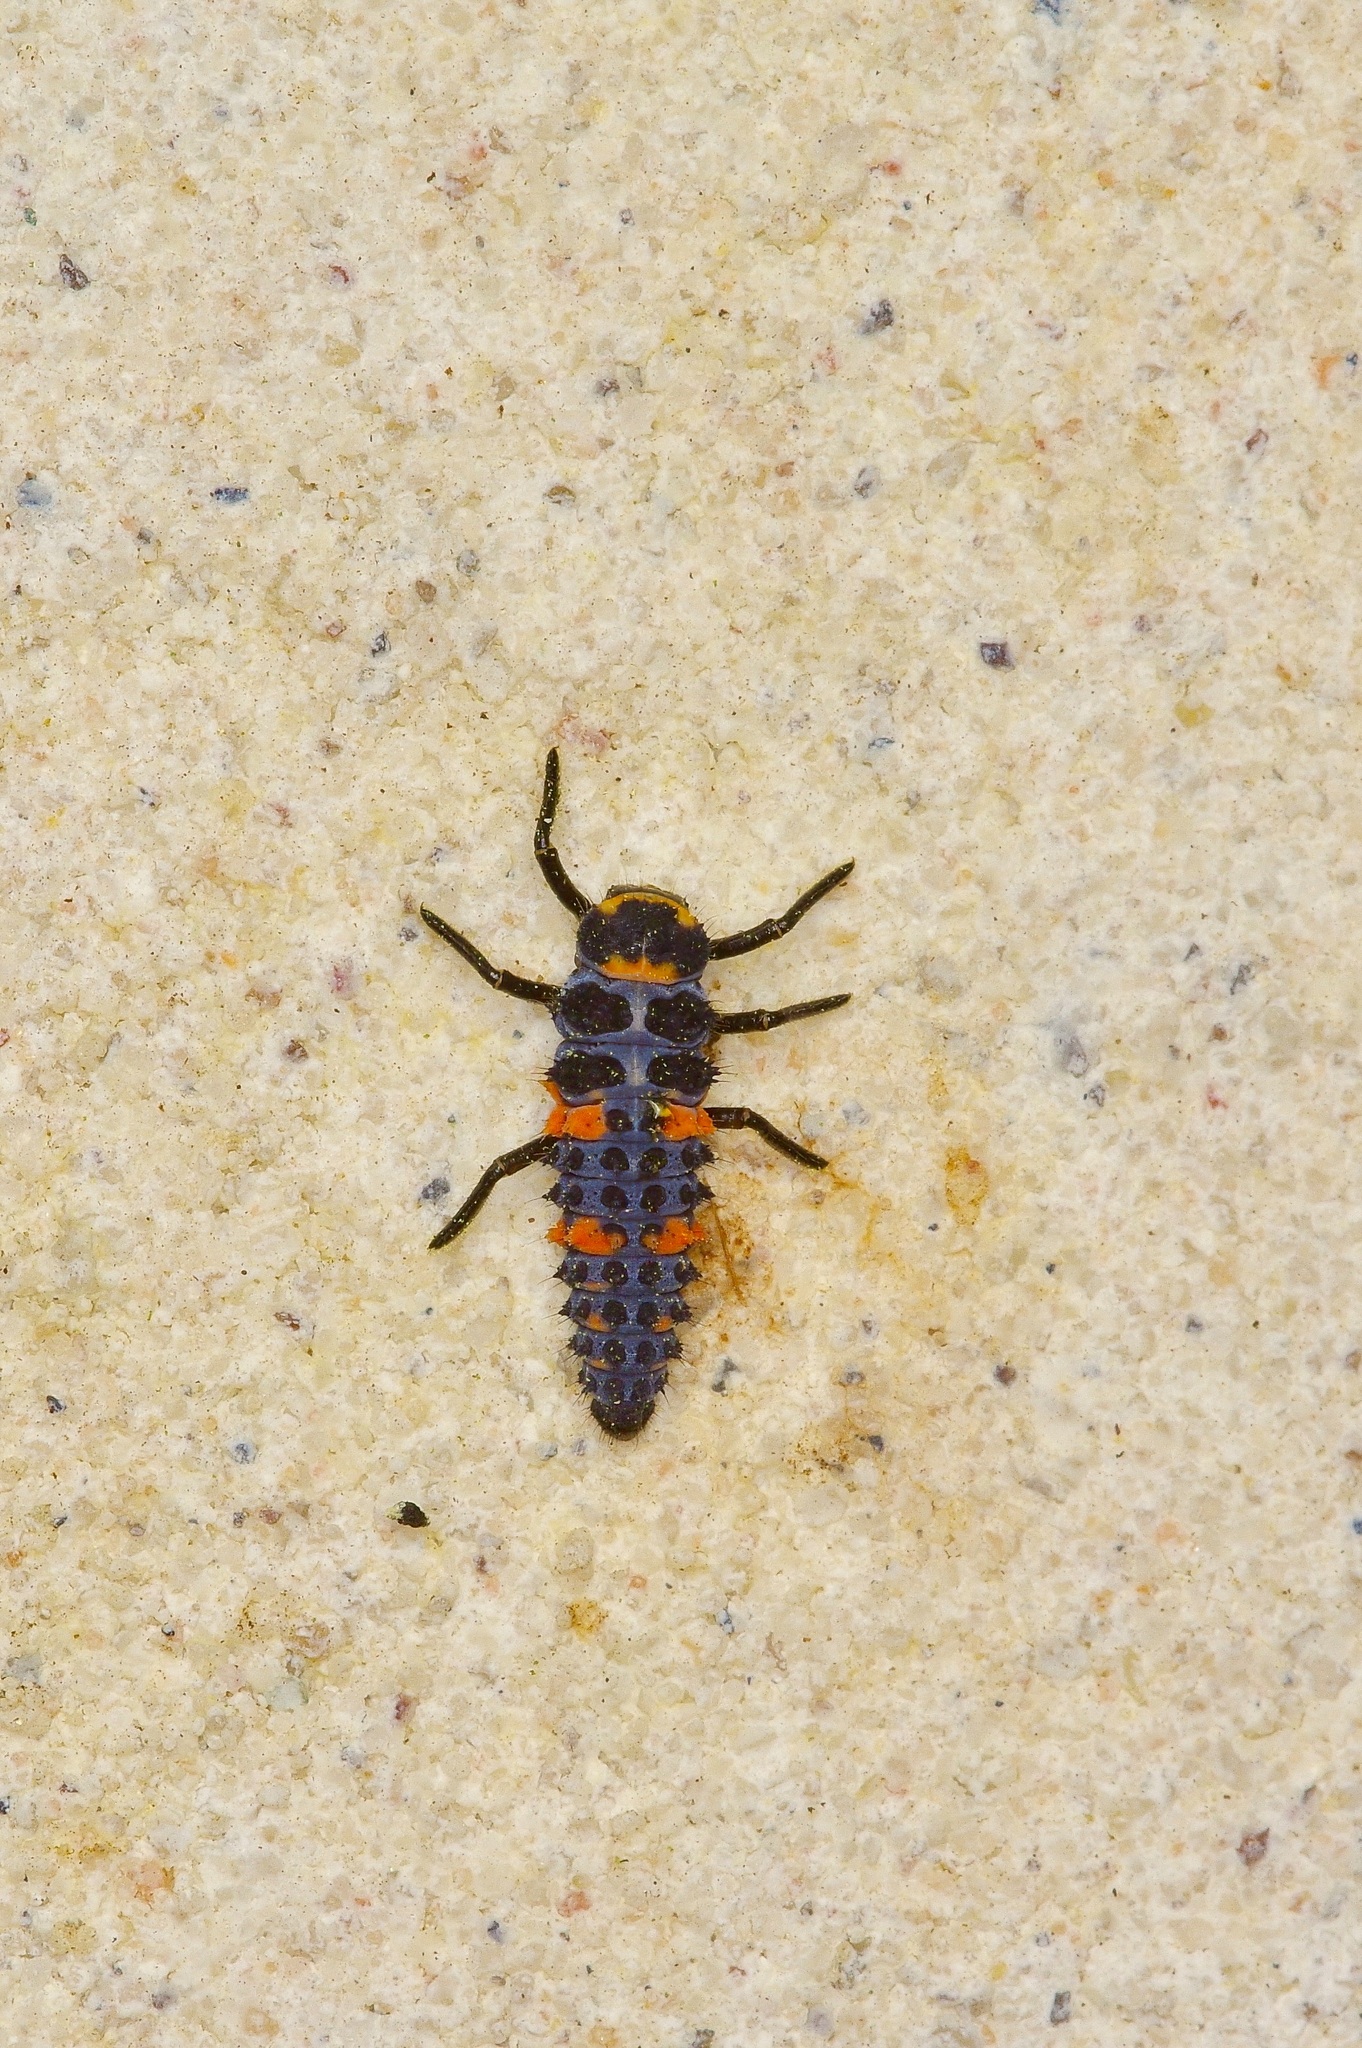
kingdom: Animalia
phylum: Arthropoda
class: Insecta
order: Coleoptera
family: Coccinellidae
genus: Coccinella
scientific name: Coccinella septempunctata
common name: Sevenspotted lady beetle
